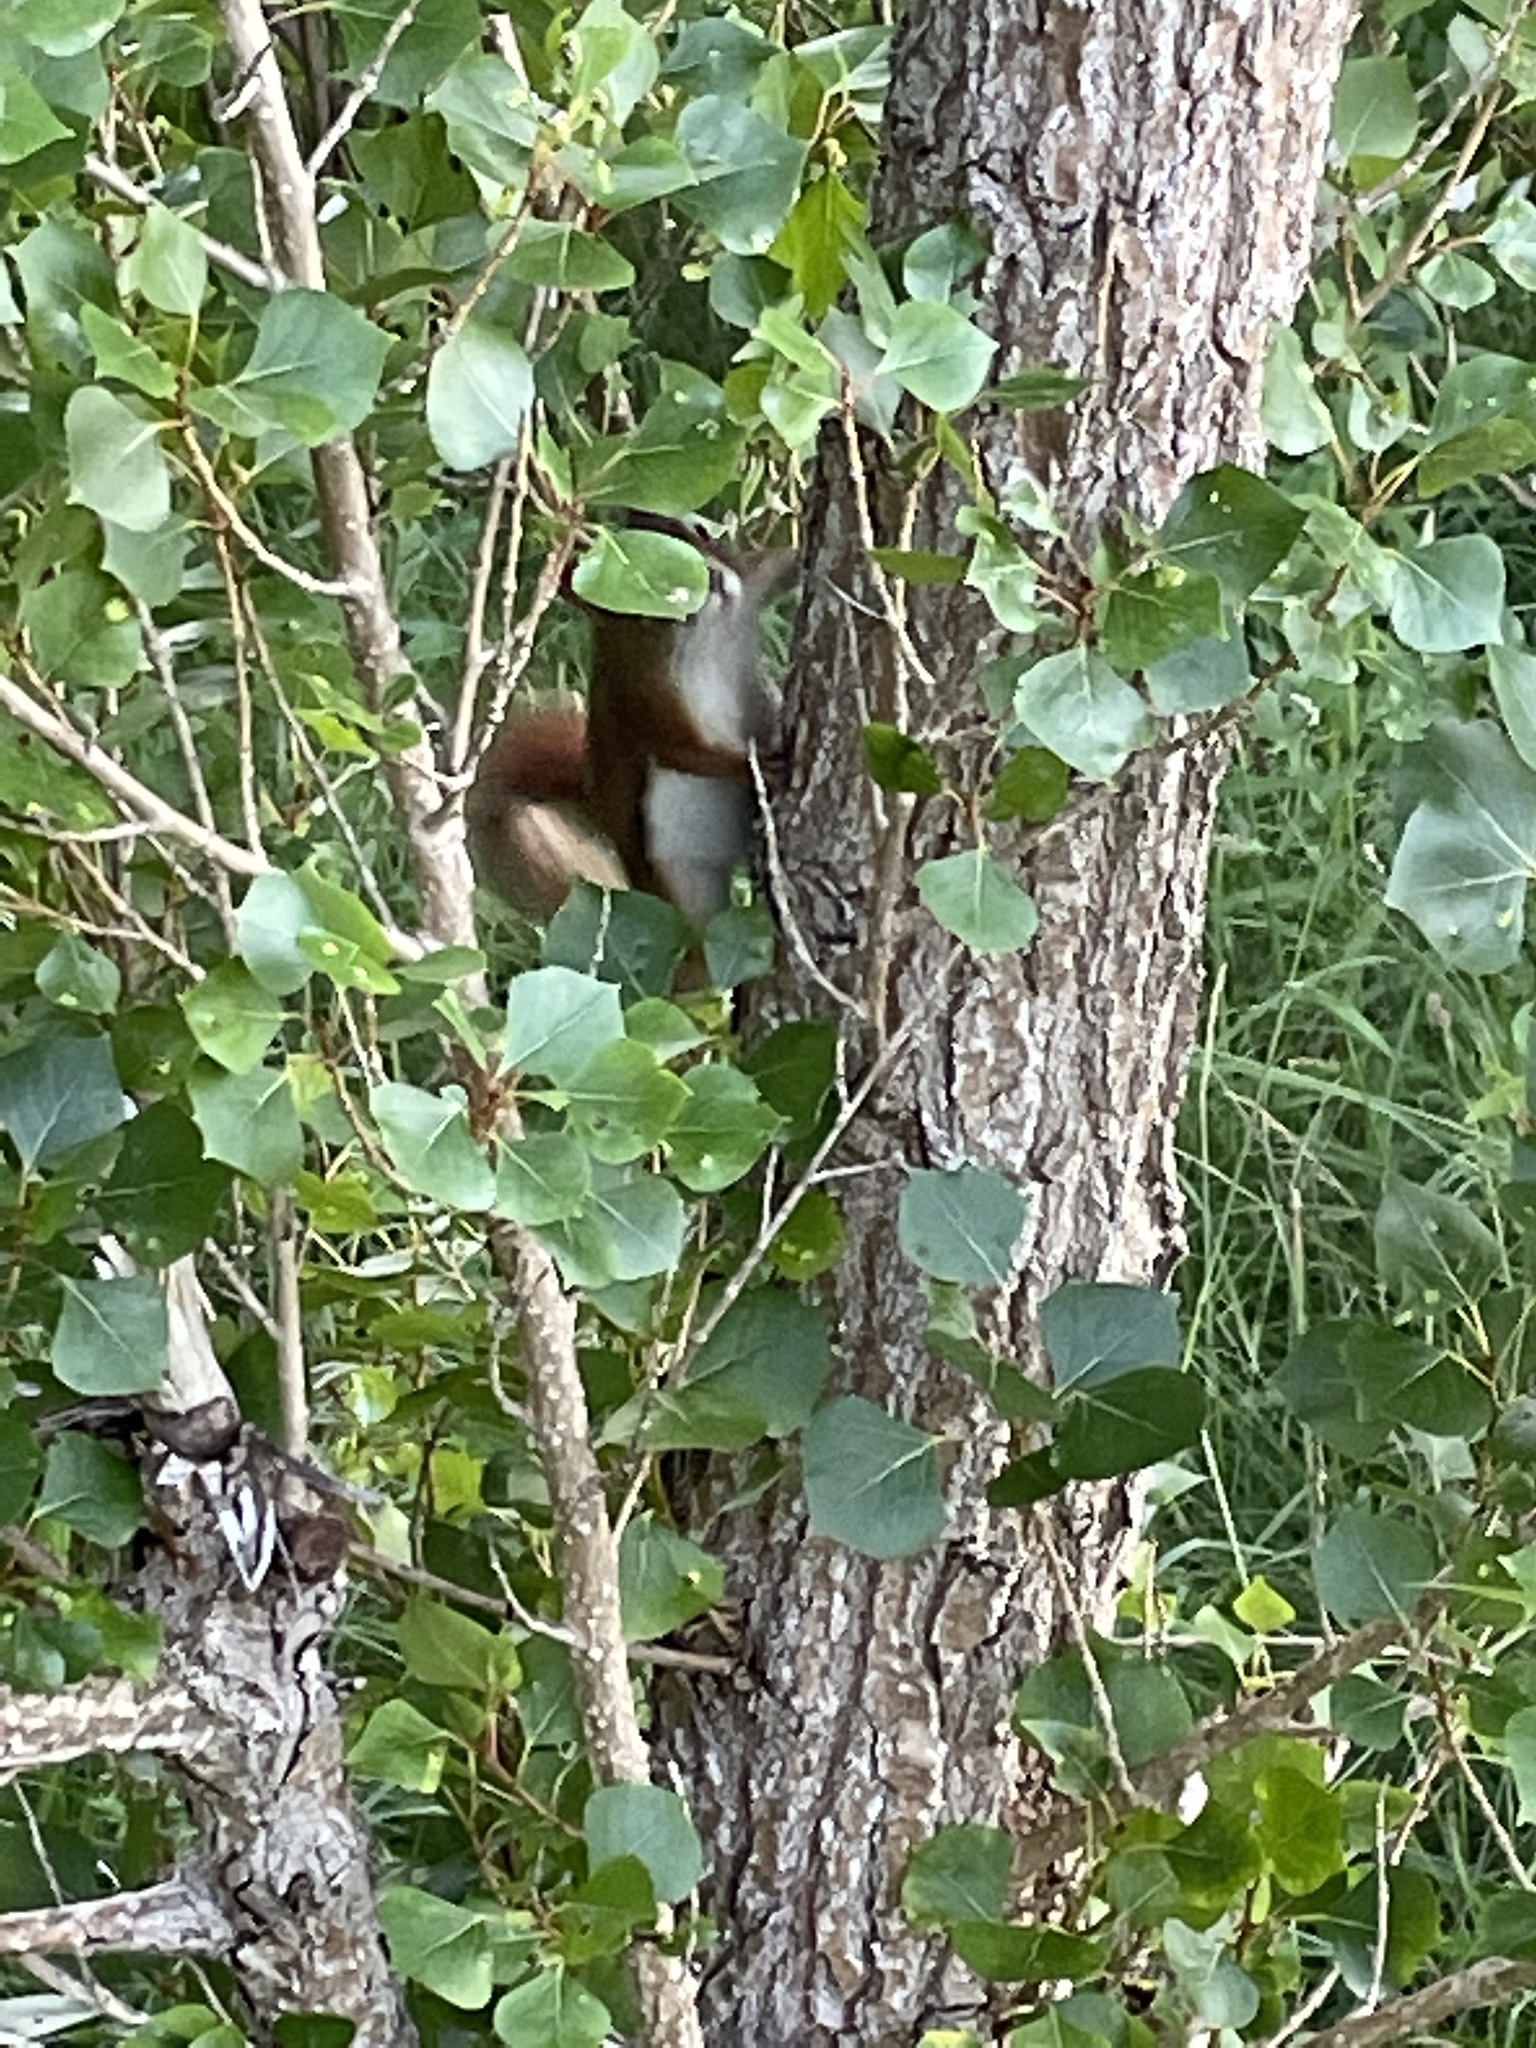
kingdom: Animalia
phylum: Chordata
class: Mammalia
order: Rodentia
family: Sciuridae
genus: Tamiasciurus
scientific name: Tamiasciurus hudsonicus
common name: Red squirrel
